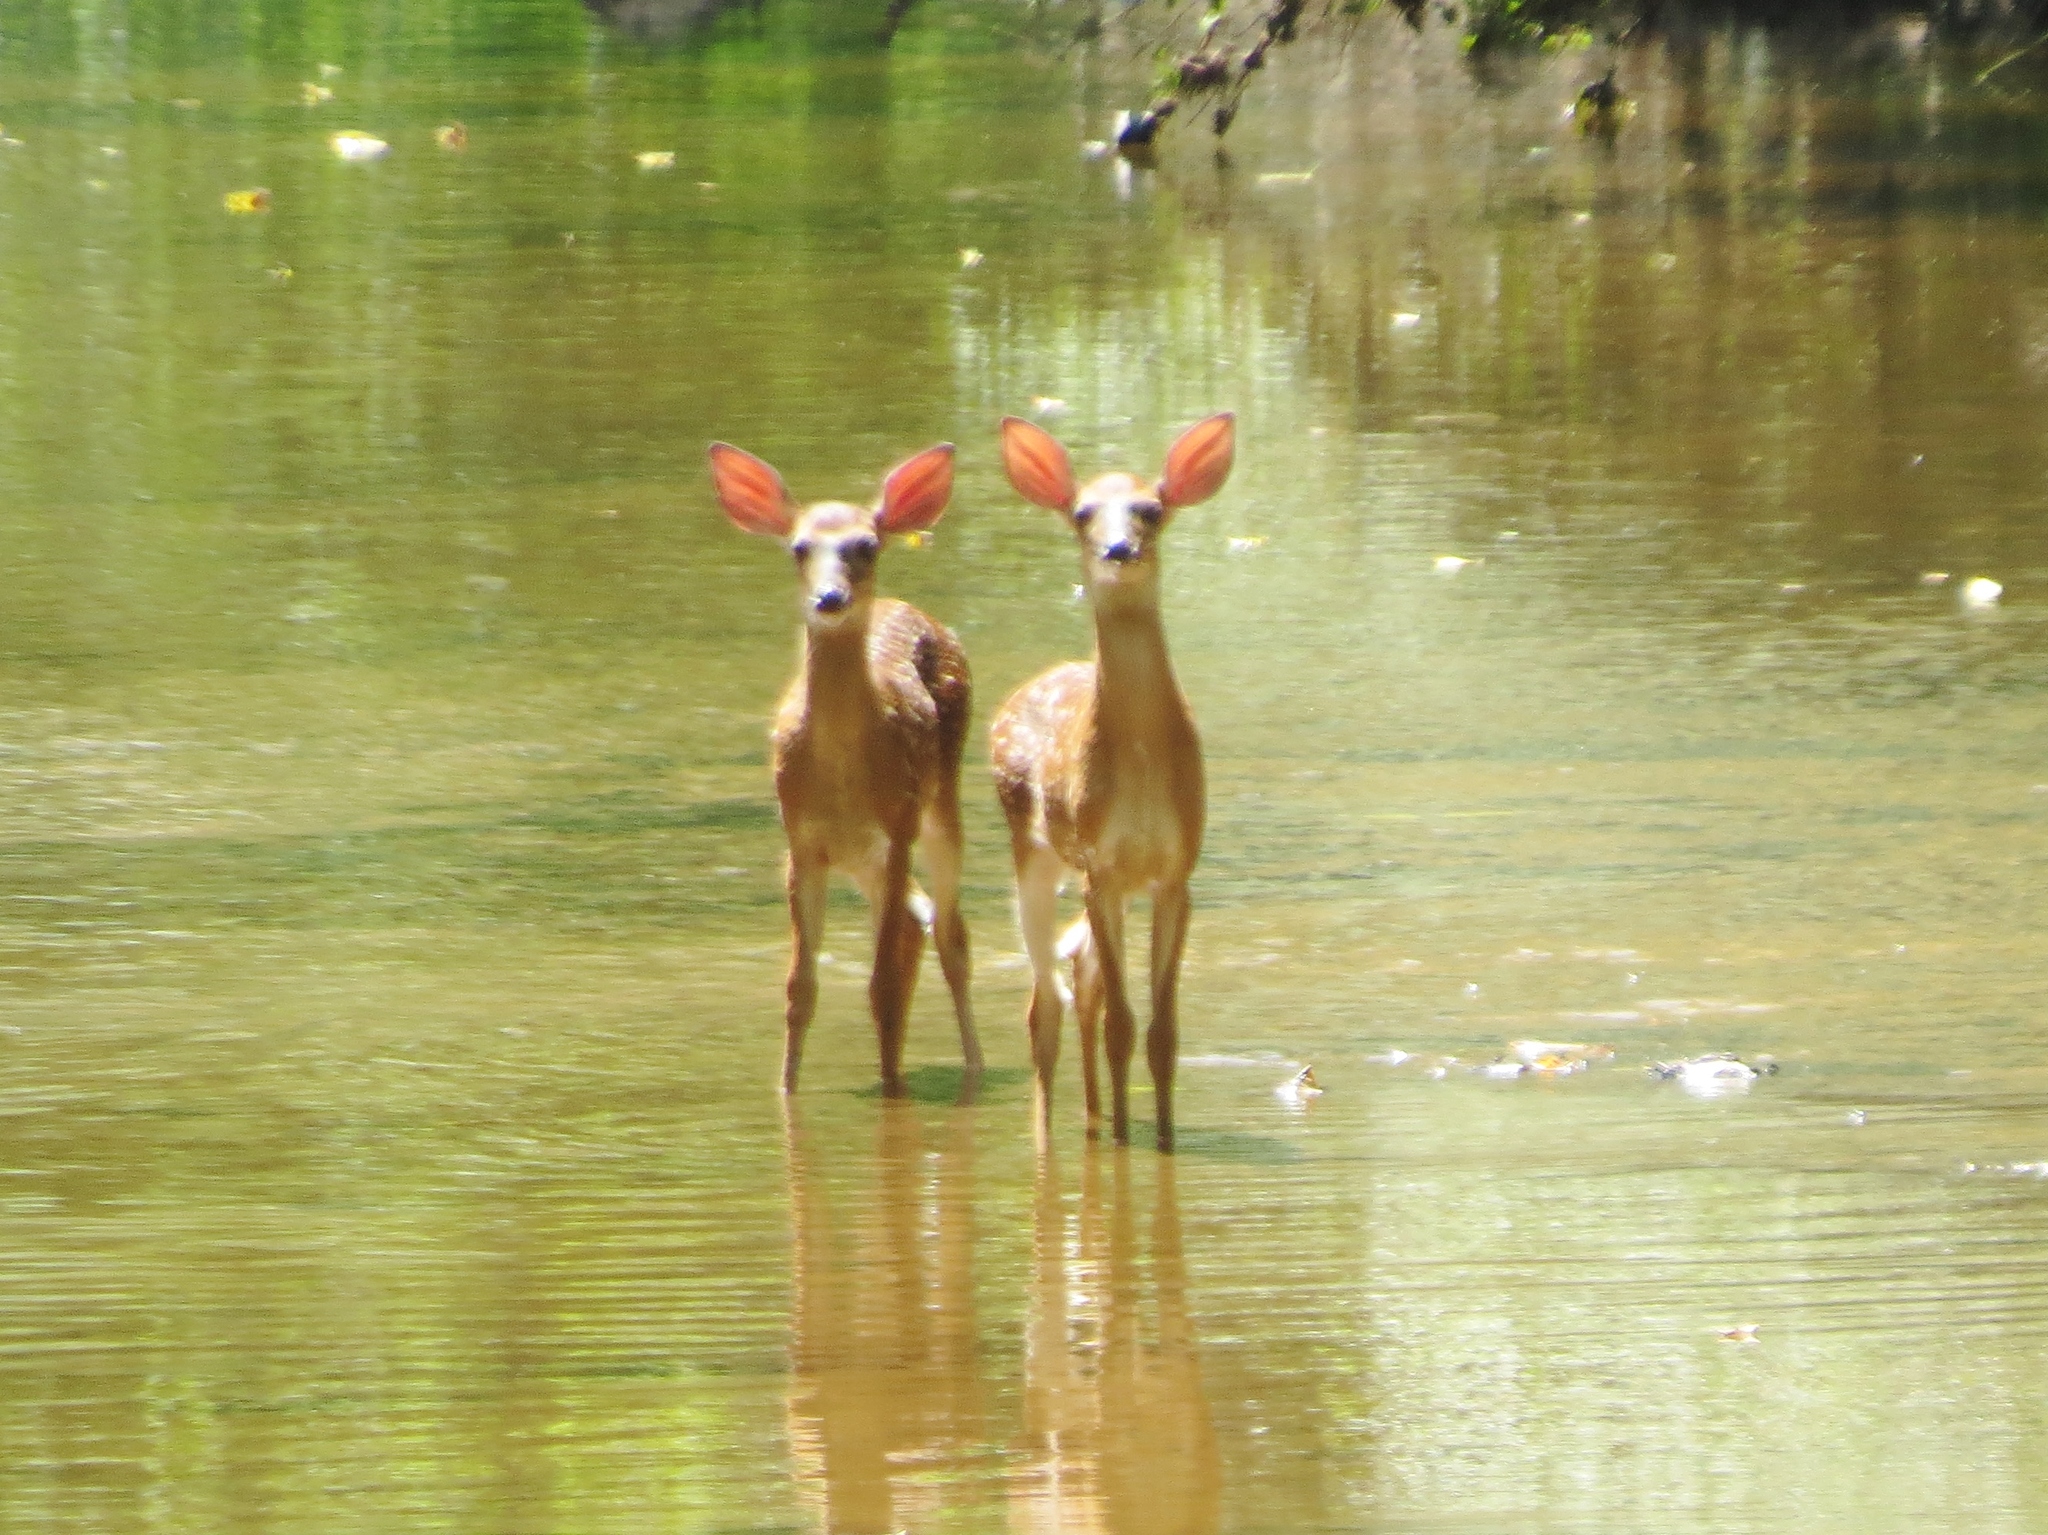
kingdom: Animalia
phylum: Chordata
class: Mammalia
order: Artiodactyla
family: Cervidae
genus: Odocoileus
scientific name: Odocoileus virginianus
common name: White-tailed deer
